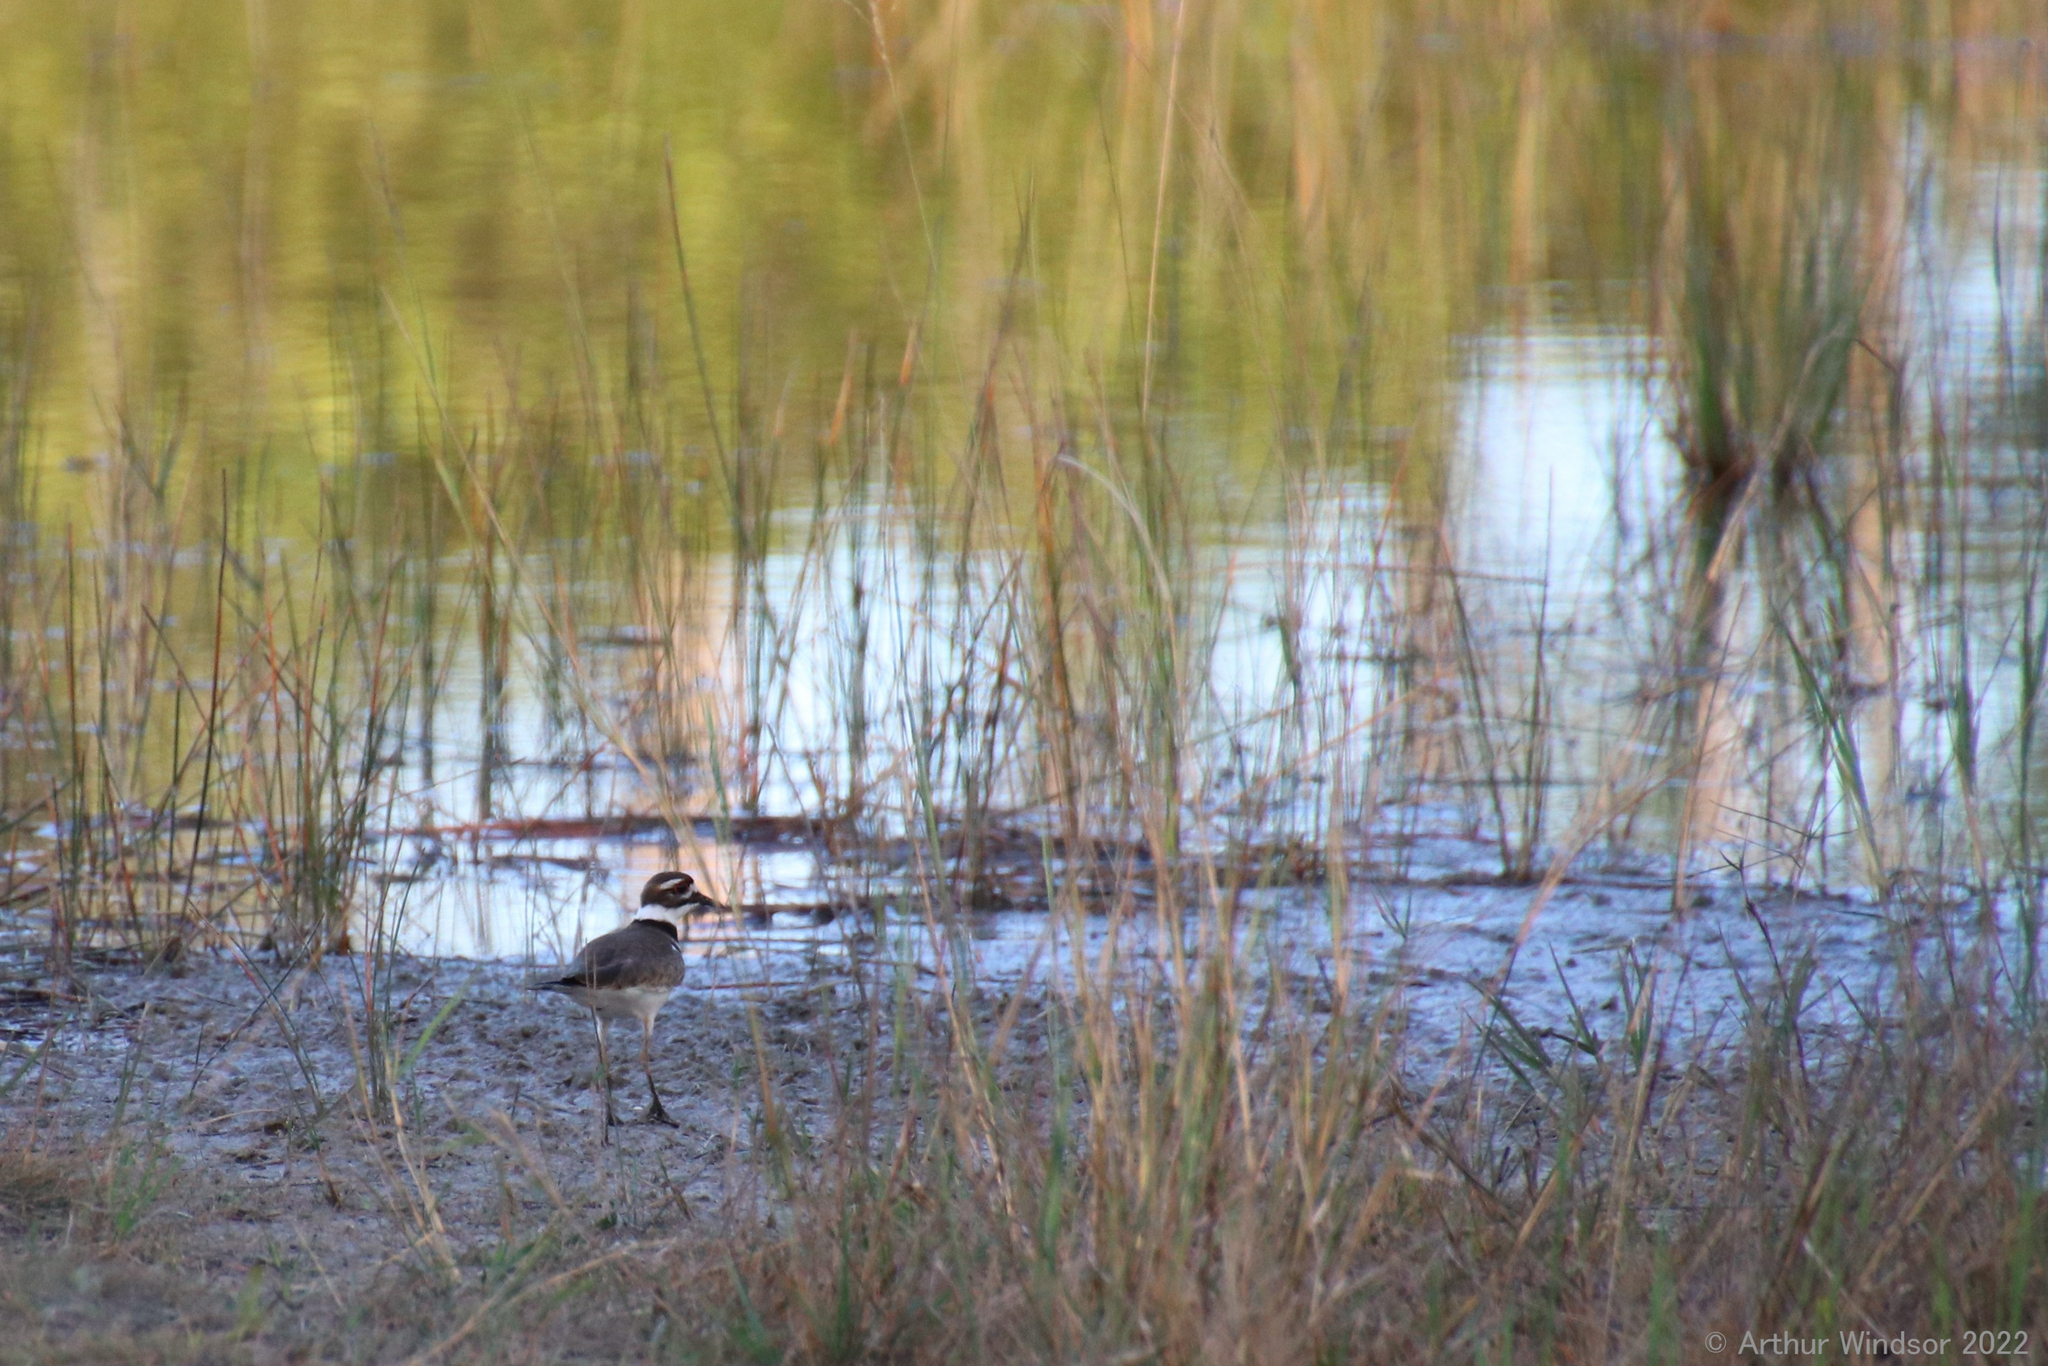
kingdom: Animalia
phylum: Chordata
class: Aves
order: Charadriiformes
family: Charadriidae
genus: Charadrius
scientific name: Charadrius vociferus
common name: Killdeer
